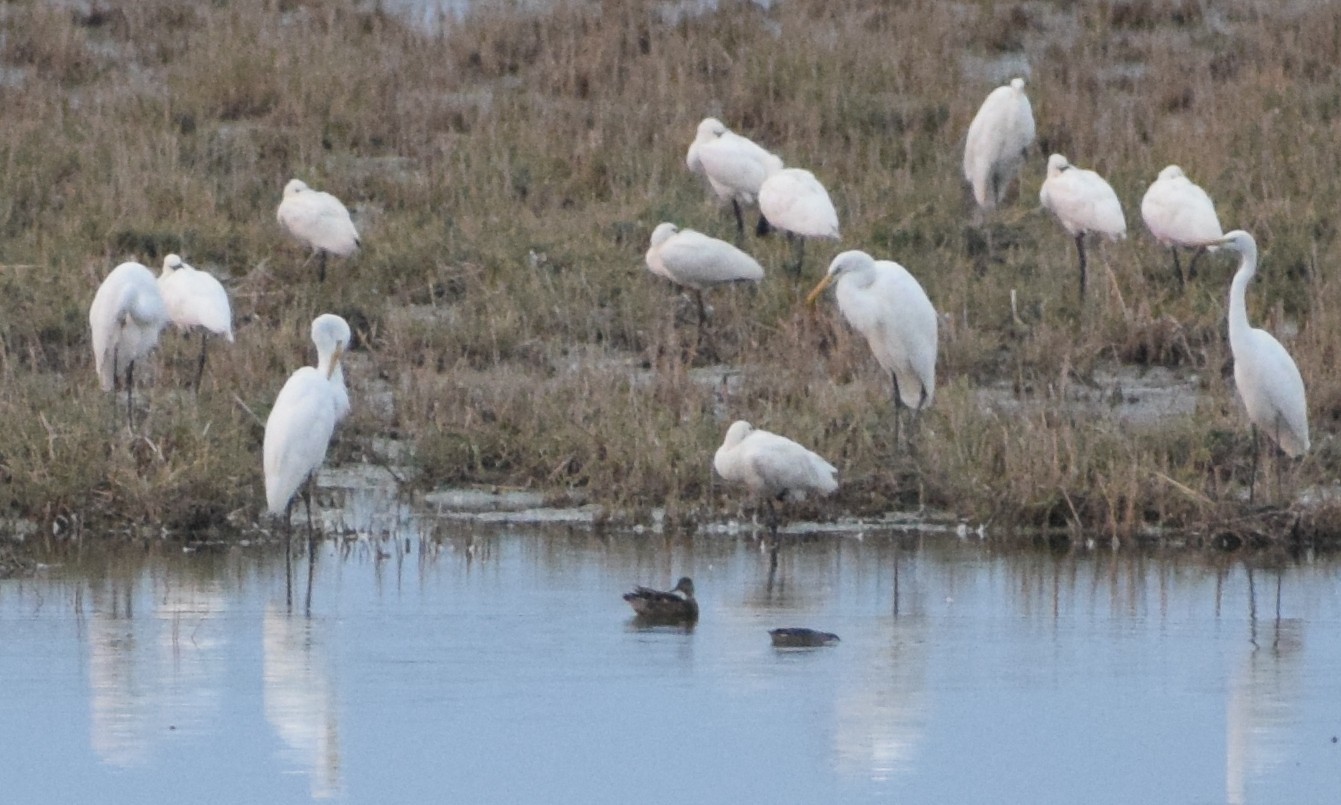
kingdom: Animalia
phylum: Chordata
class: Aves
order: Pelecaniformes
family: Ardeidae
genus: Ardea
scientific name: Ardea alba
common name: Great egret
